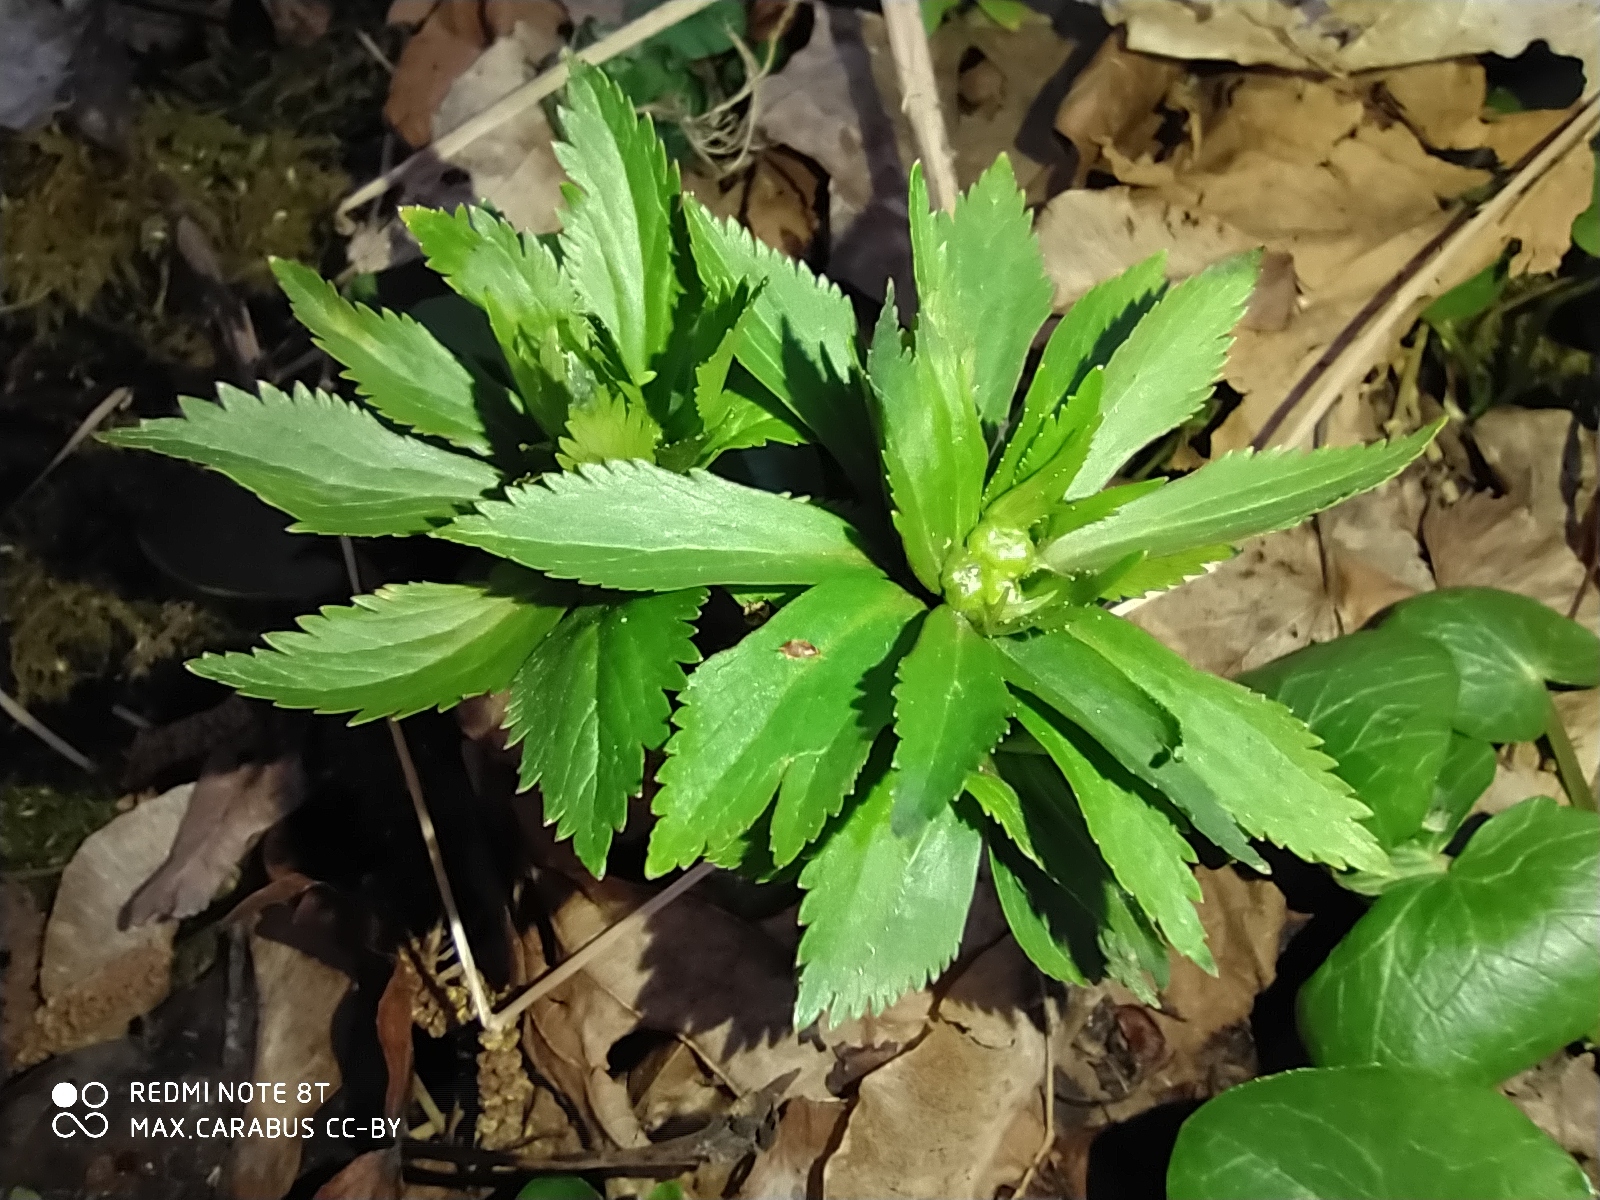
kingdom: Plantae
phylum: Tracheophyta
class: Magnoliopsida
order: Ranunculales
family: Ranunculaceae
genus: Ranunculus
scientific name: Ranunculus cassubicus
